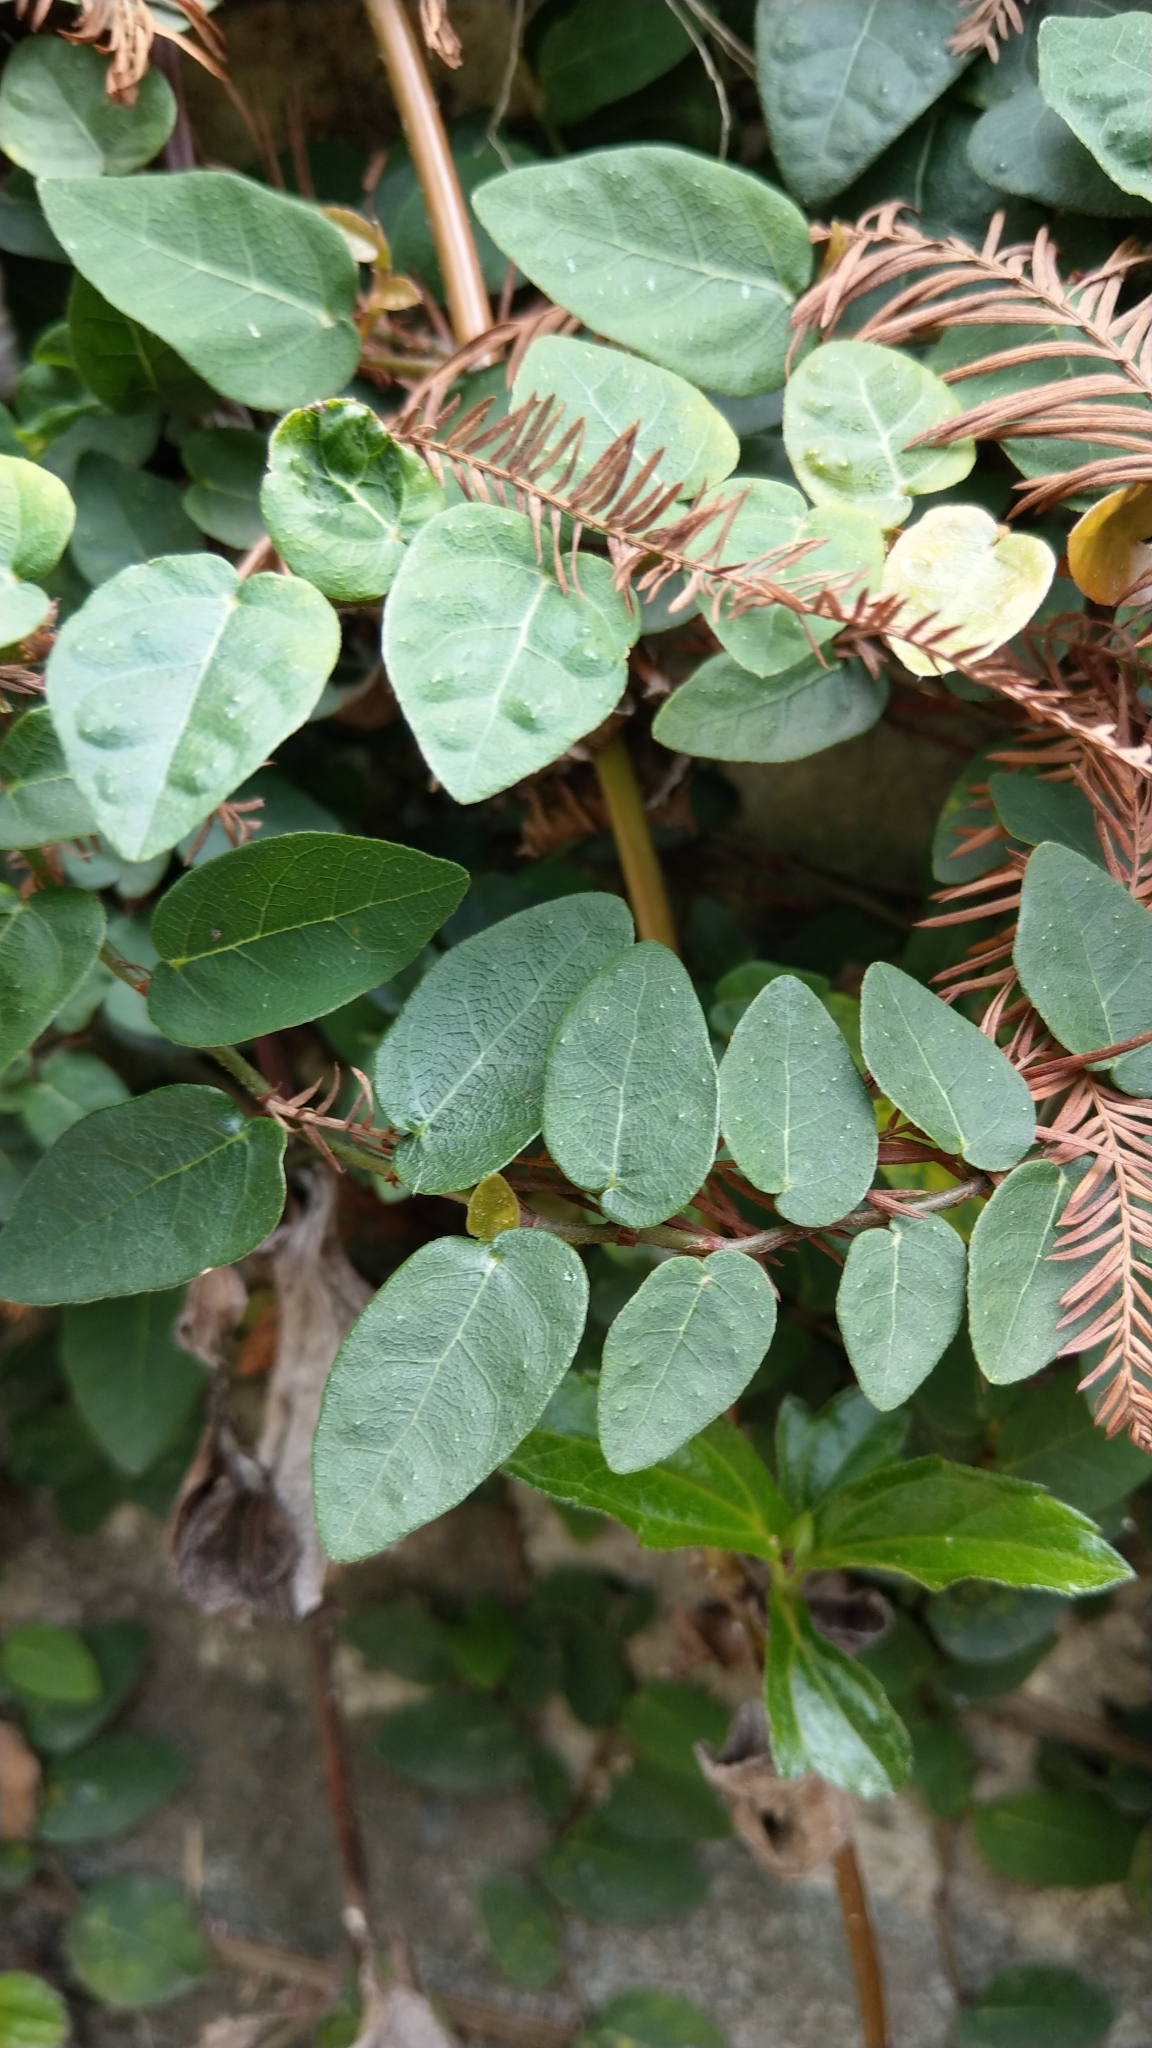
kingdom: Plantae
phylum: Tracheophyta
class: Magnoliopsida
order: Rosales
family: Moraceae
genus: Ficus
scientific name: Ficus pumila
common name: Climbingfig
